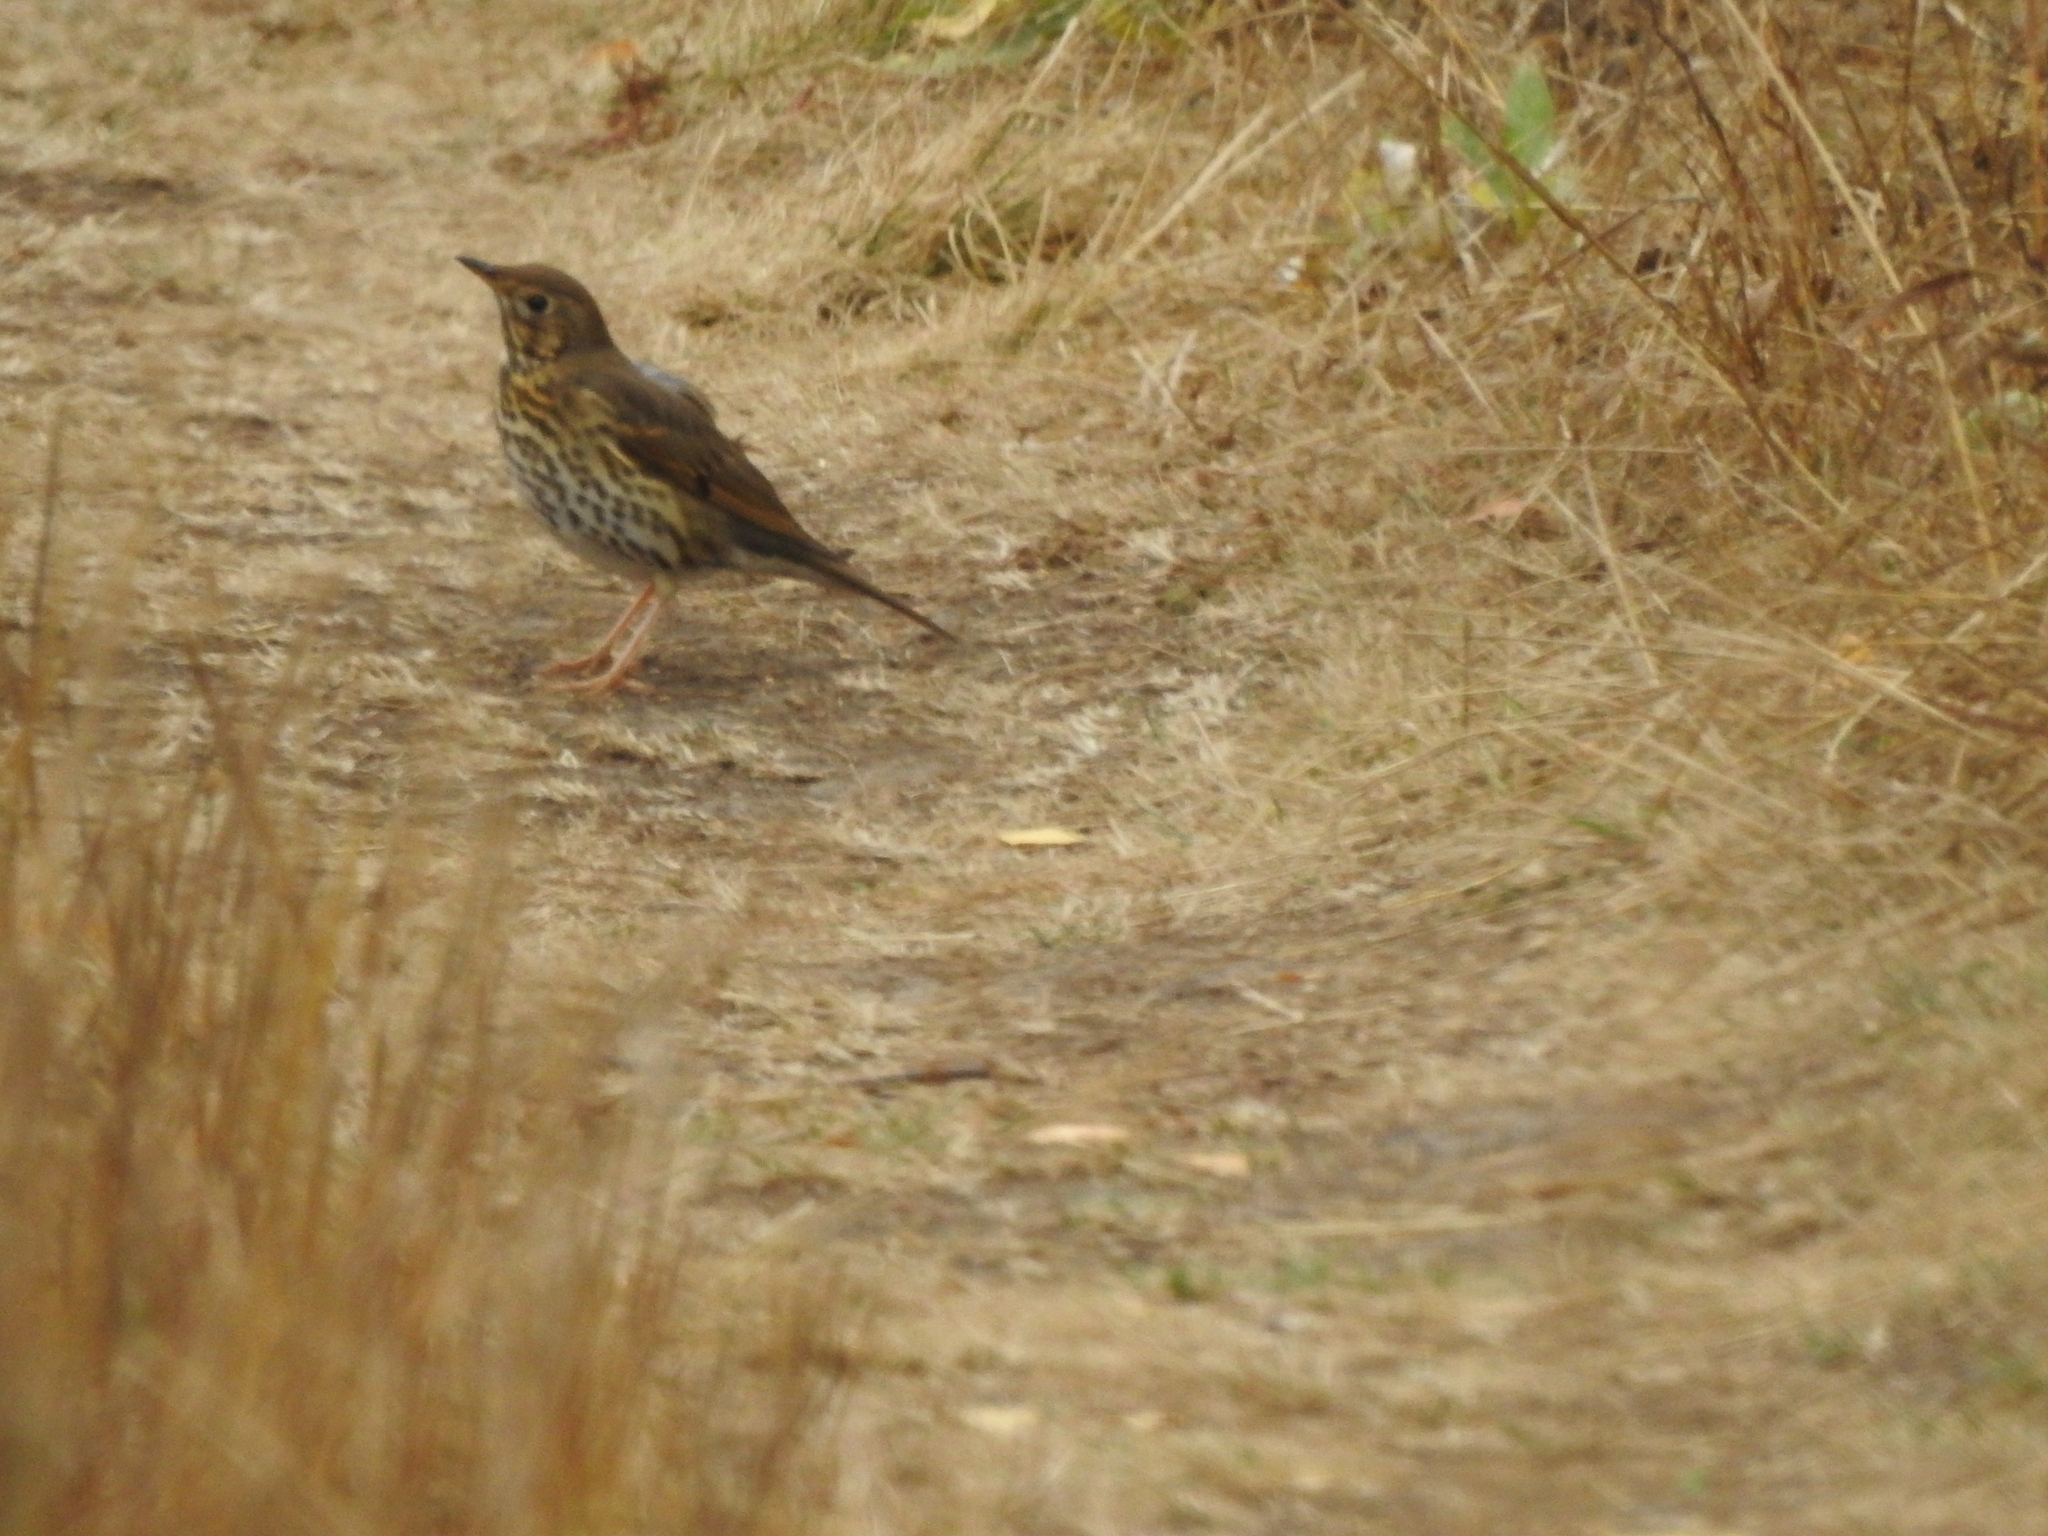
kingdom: Animalia
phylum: Chordata
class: Aves
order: Passeriformes
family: Turdidae
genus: Turdus
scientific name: Turdus philomelos
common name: Song thrush
